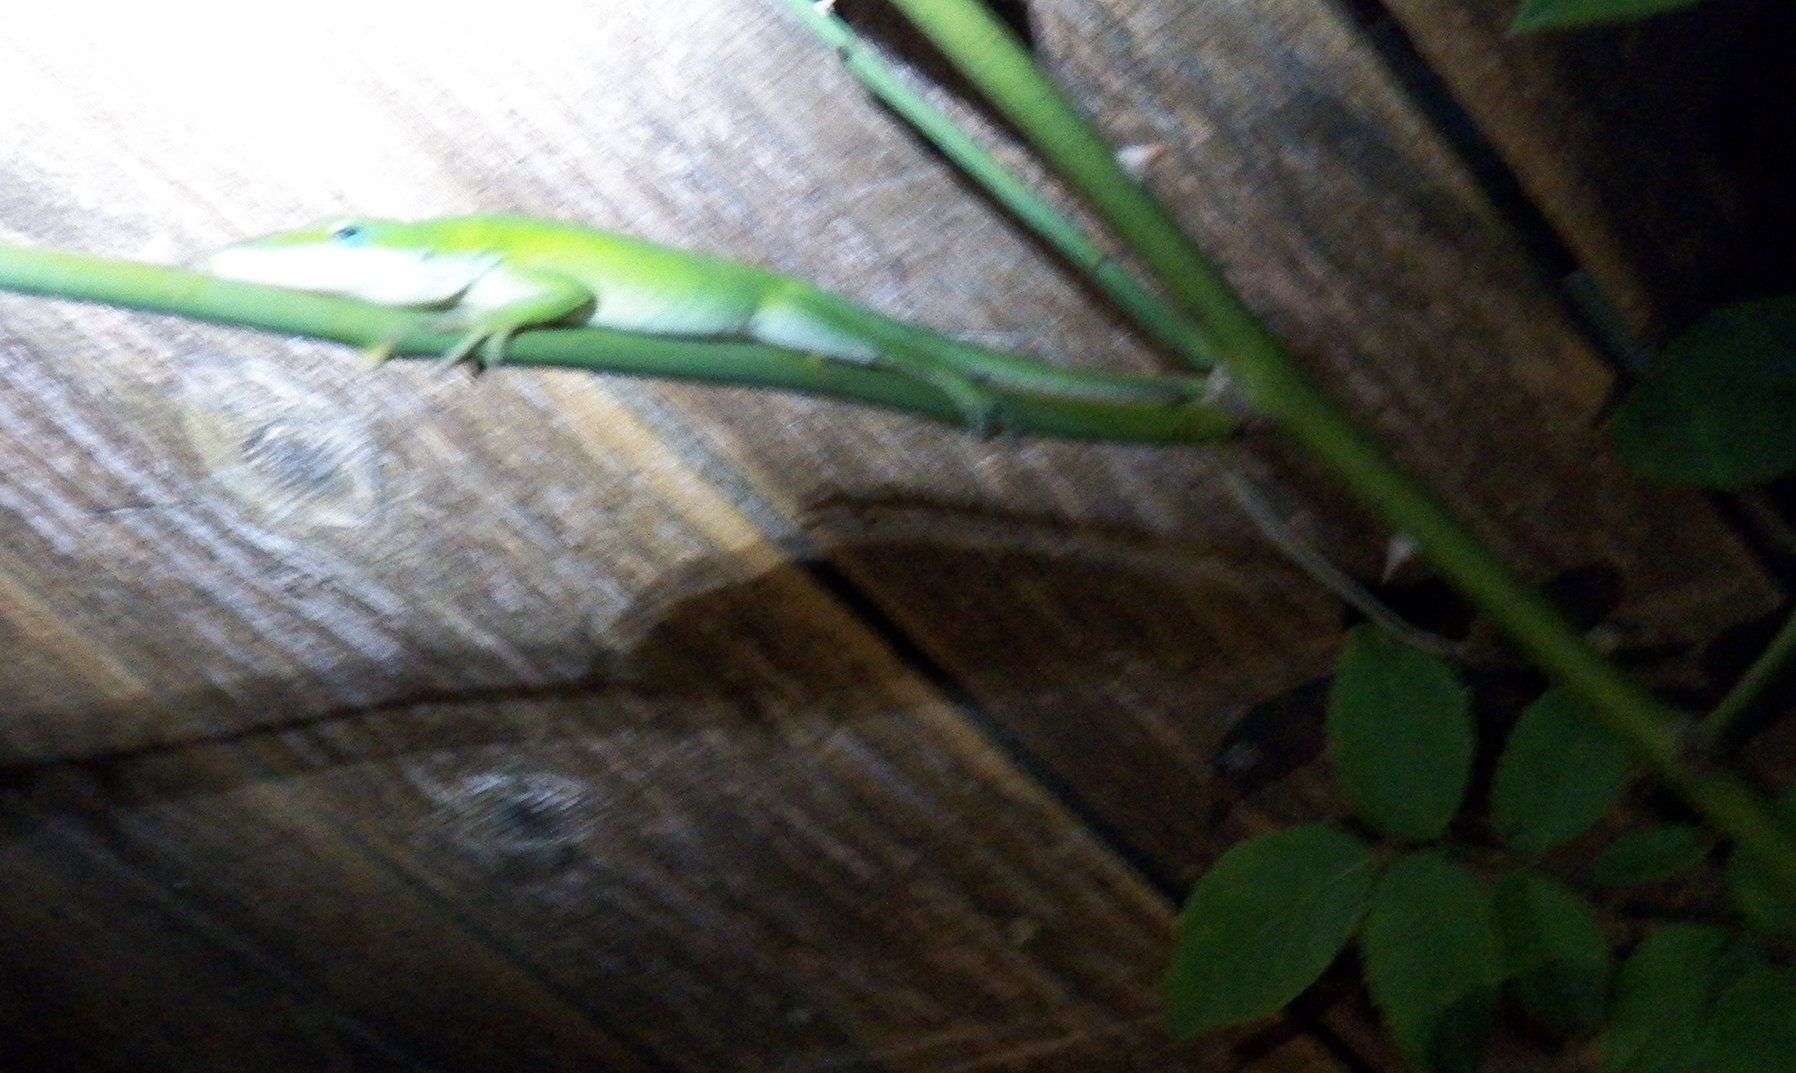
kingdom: Animalia
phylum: Chordata
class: Squamata
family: Dactyloidae
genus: Anolis
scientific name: Anolis carolinensis
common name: Green anole
